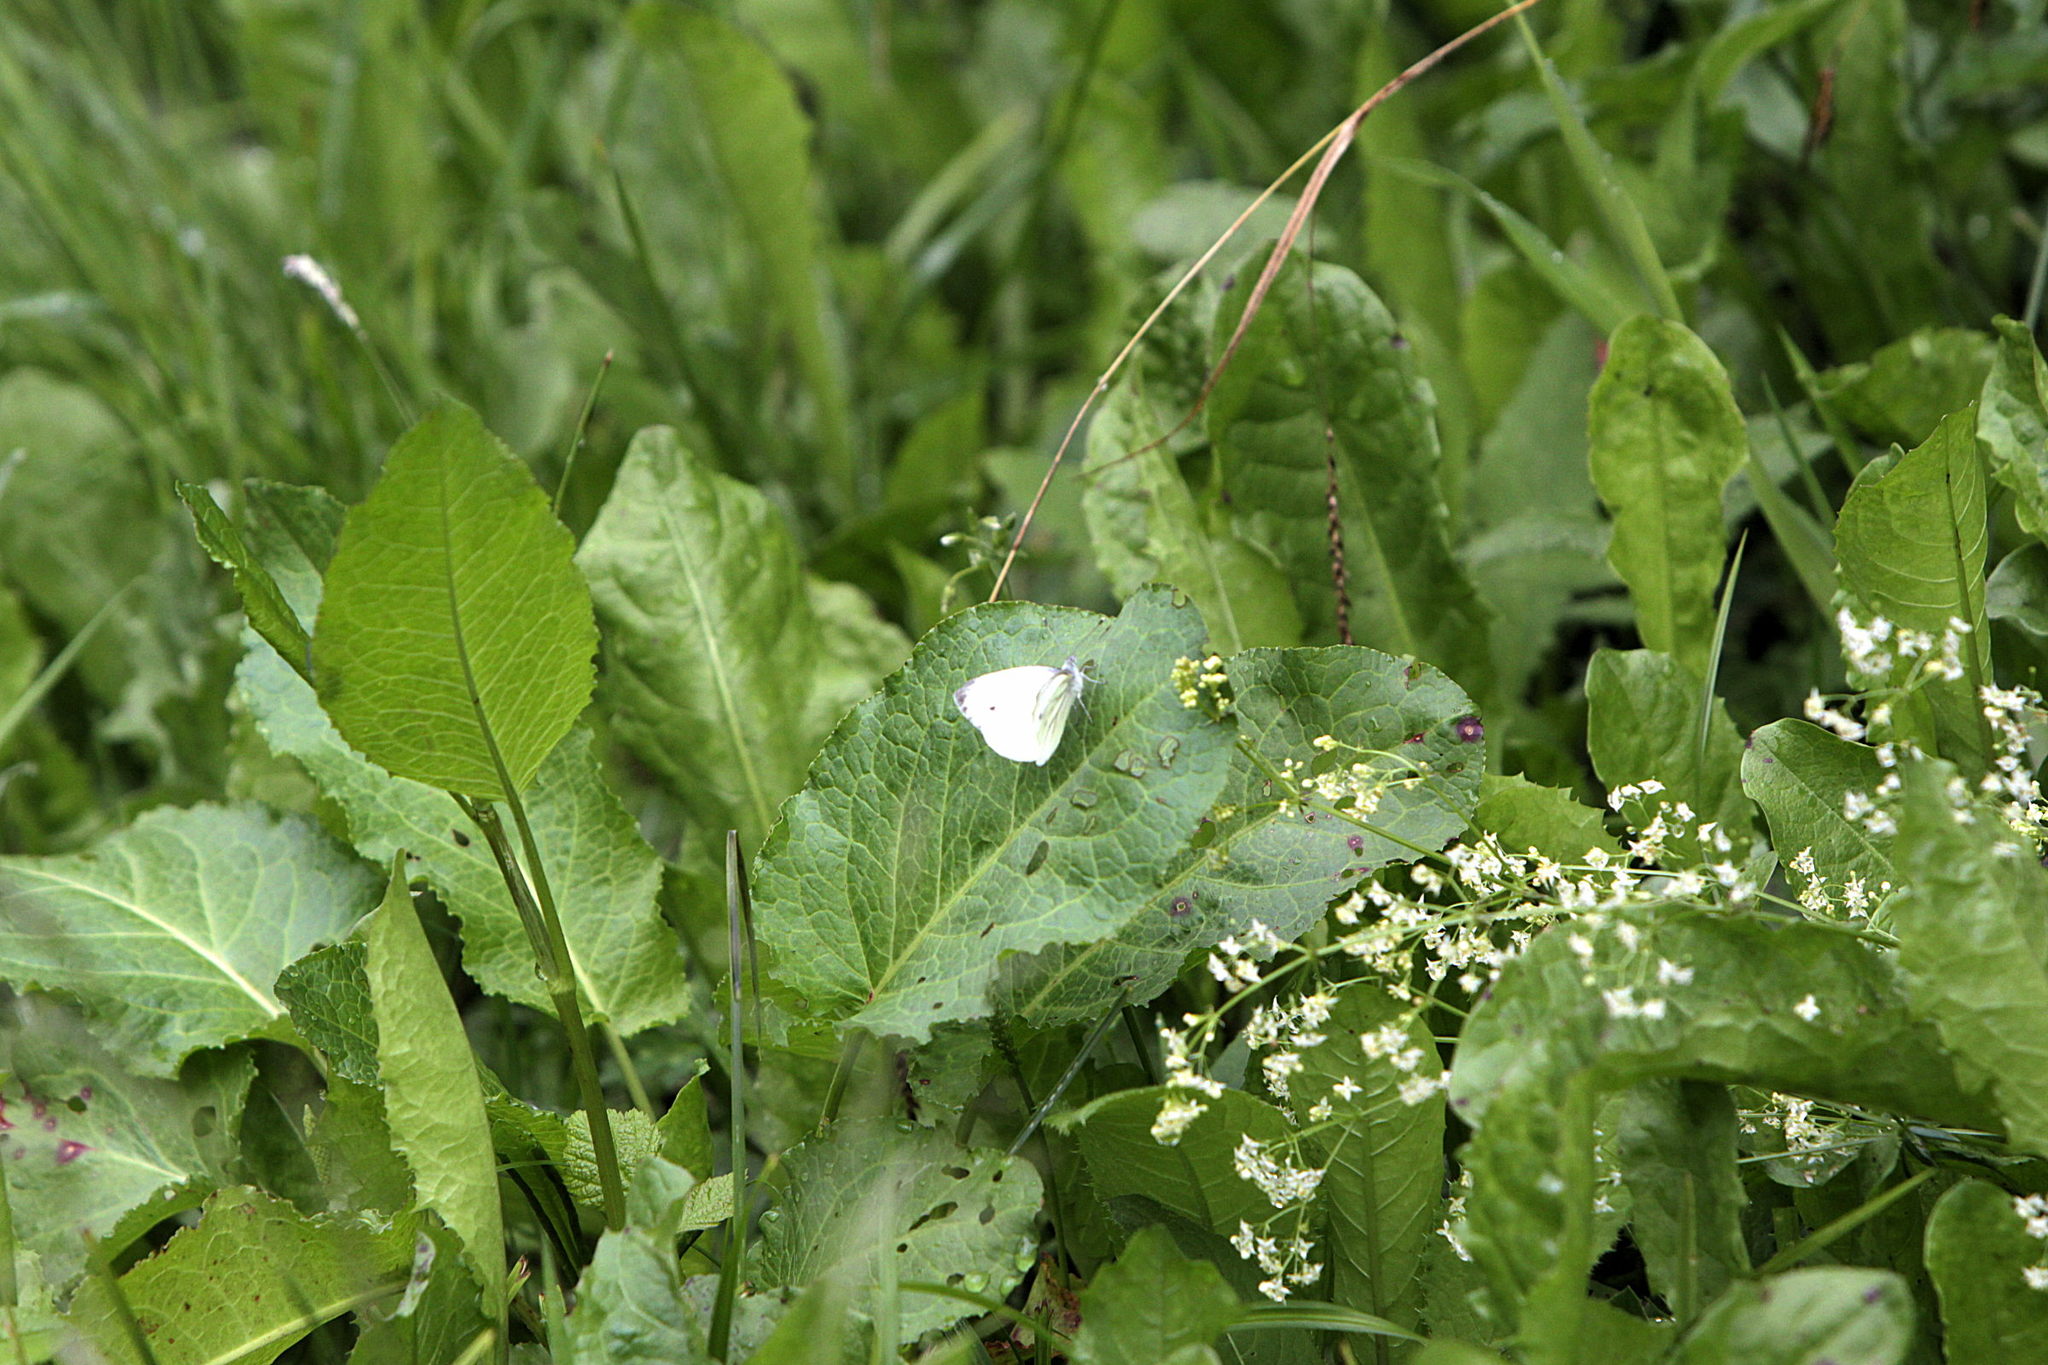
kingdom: Animalia
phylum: Arthropoda
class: Insecta
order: Lepidoptera
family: Pieridae
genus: Pieris
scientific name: Pieris napi
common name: Green-veined white
